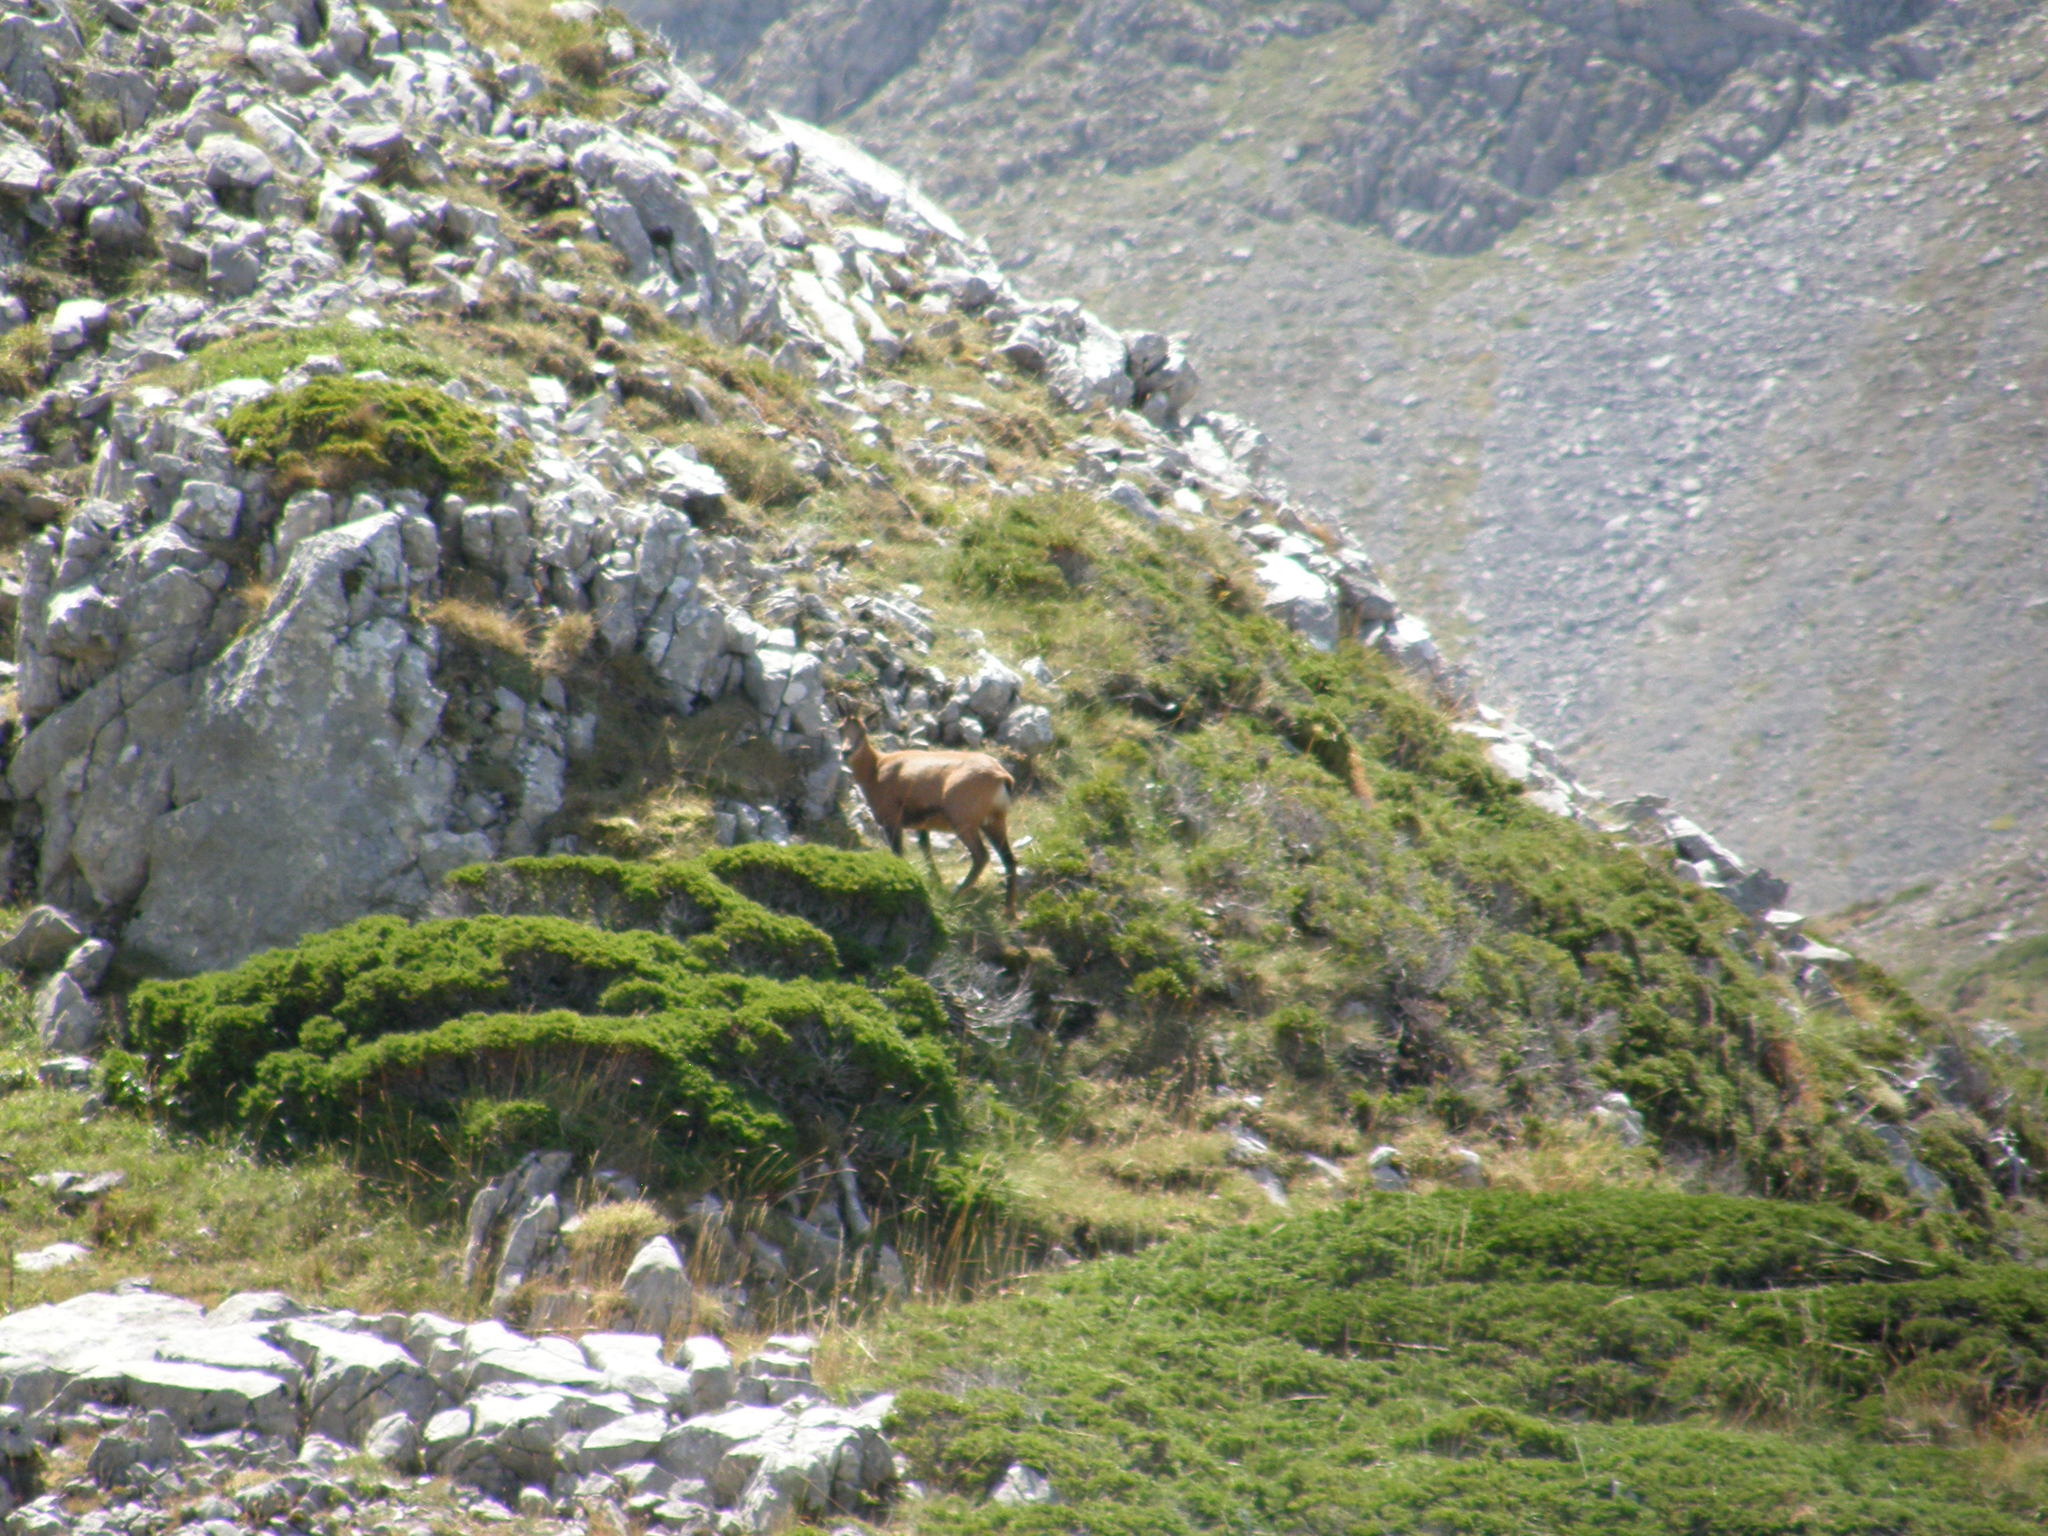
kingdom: Animalia
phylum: Chordata
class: Mammalia
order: Artiodactyla
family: Bovidae
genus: Rupicapra
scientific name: Rupicapra pyrenaica
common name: Pyrenean chamois
